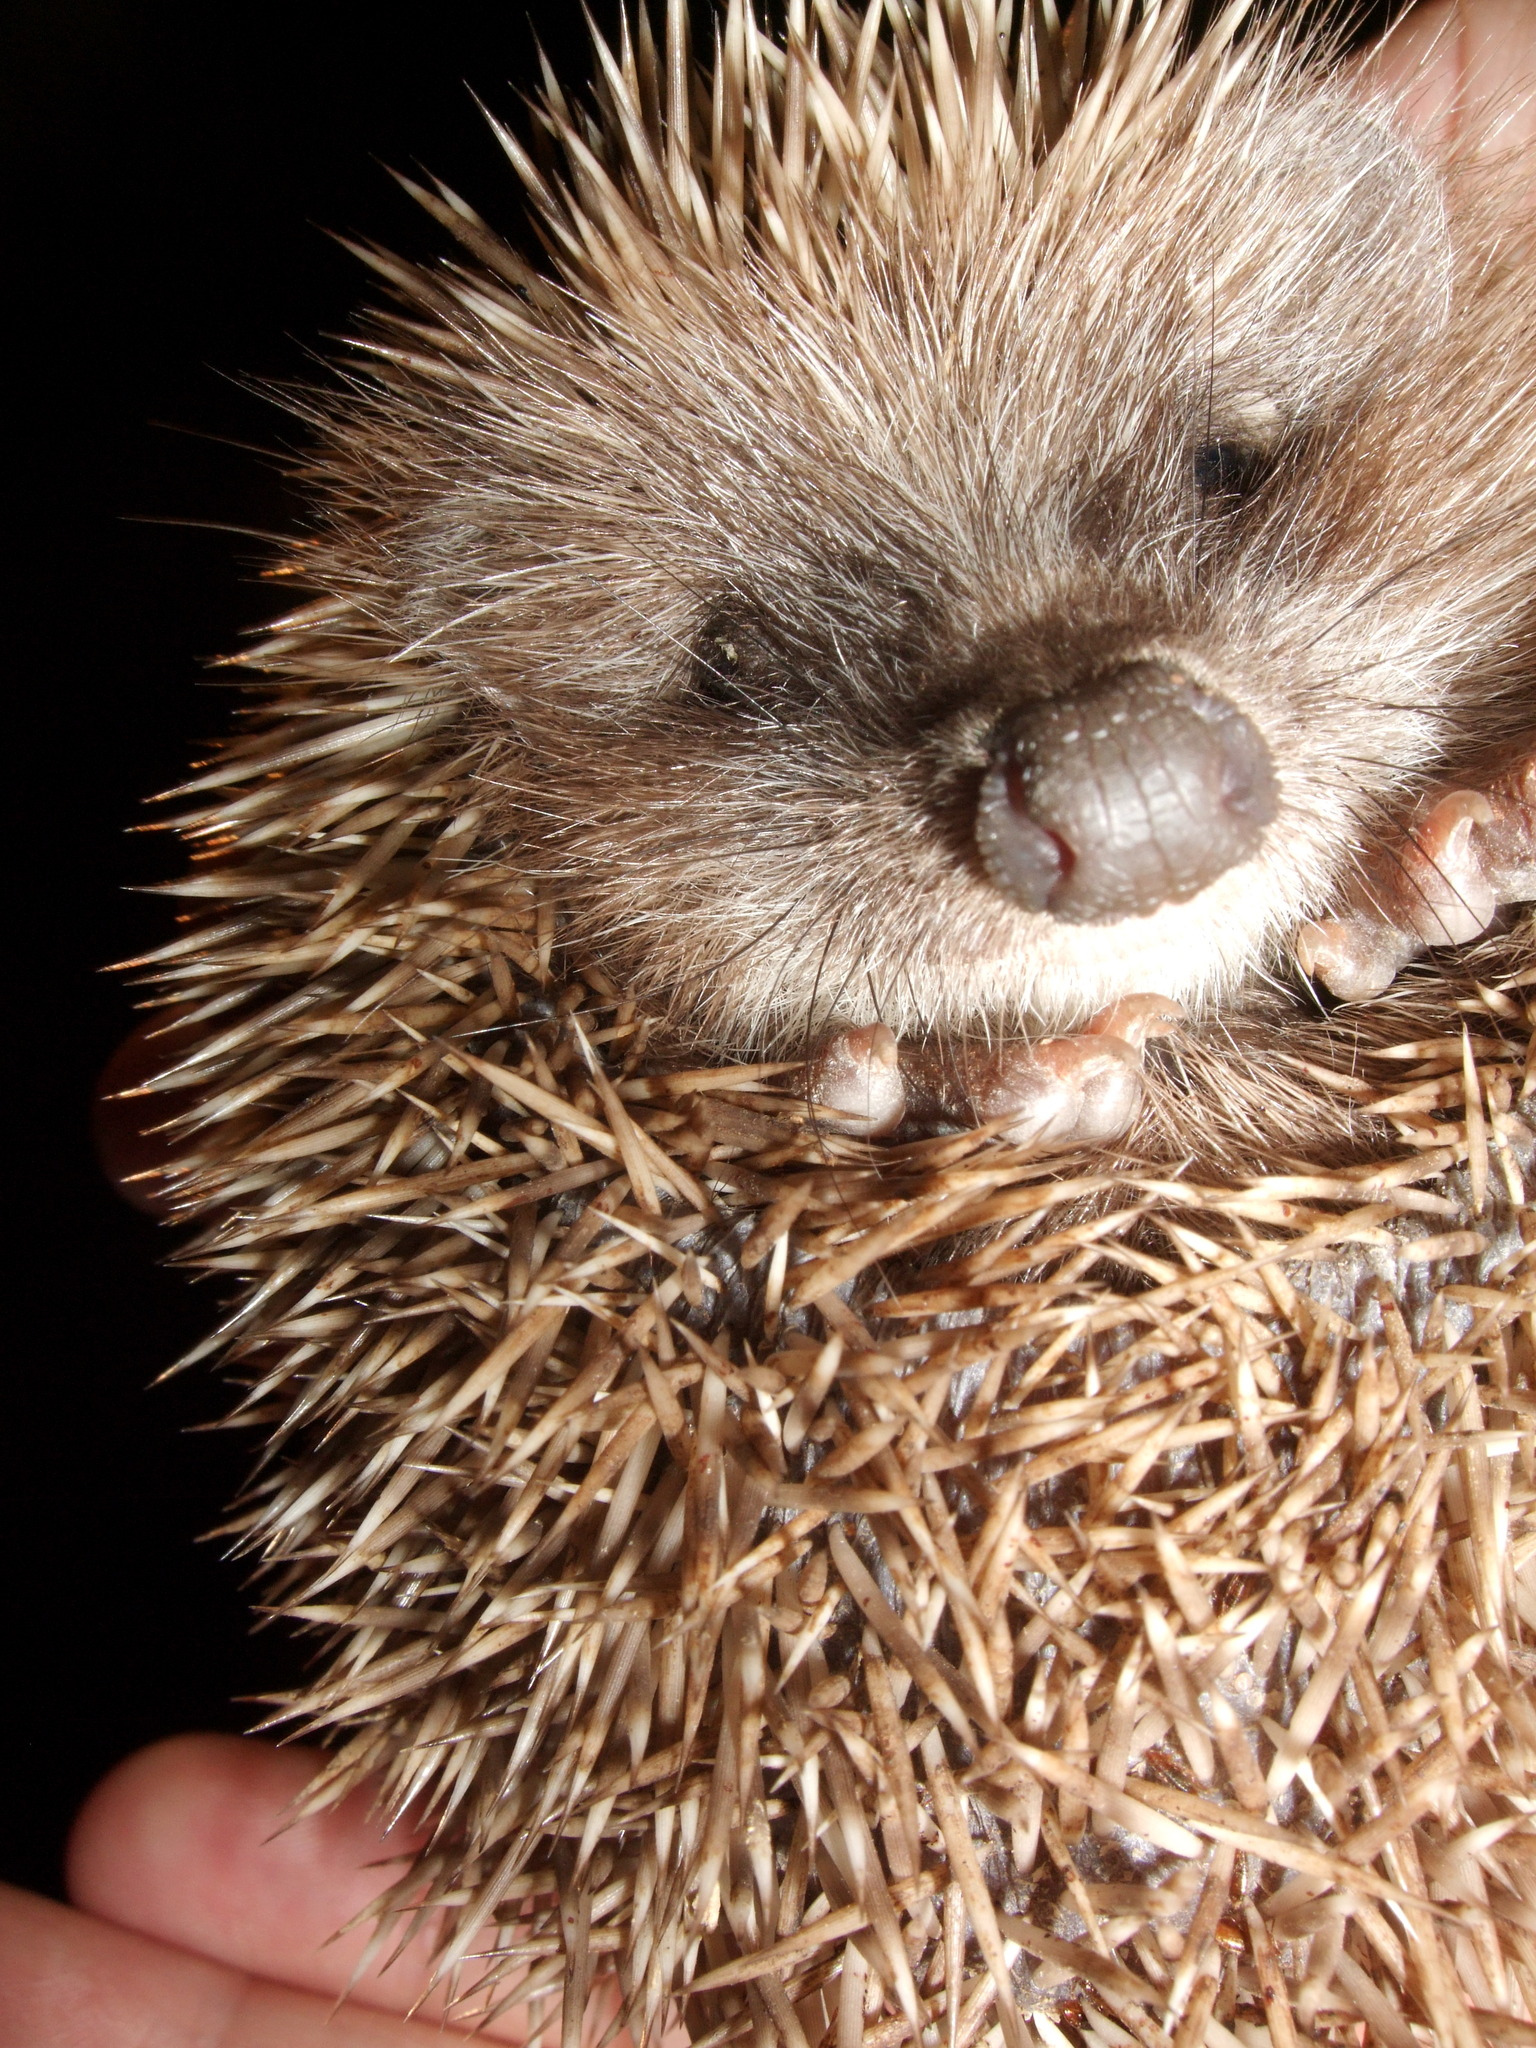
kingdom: Animalia
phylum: Chordata
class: Mammalia
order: Erinaceomorpha
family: Erinaceidae
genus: Erinaceus
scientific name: Erinaceus
